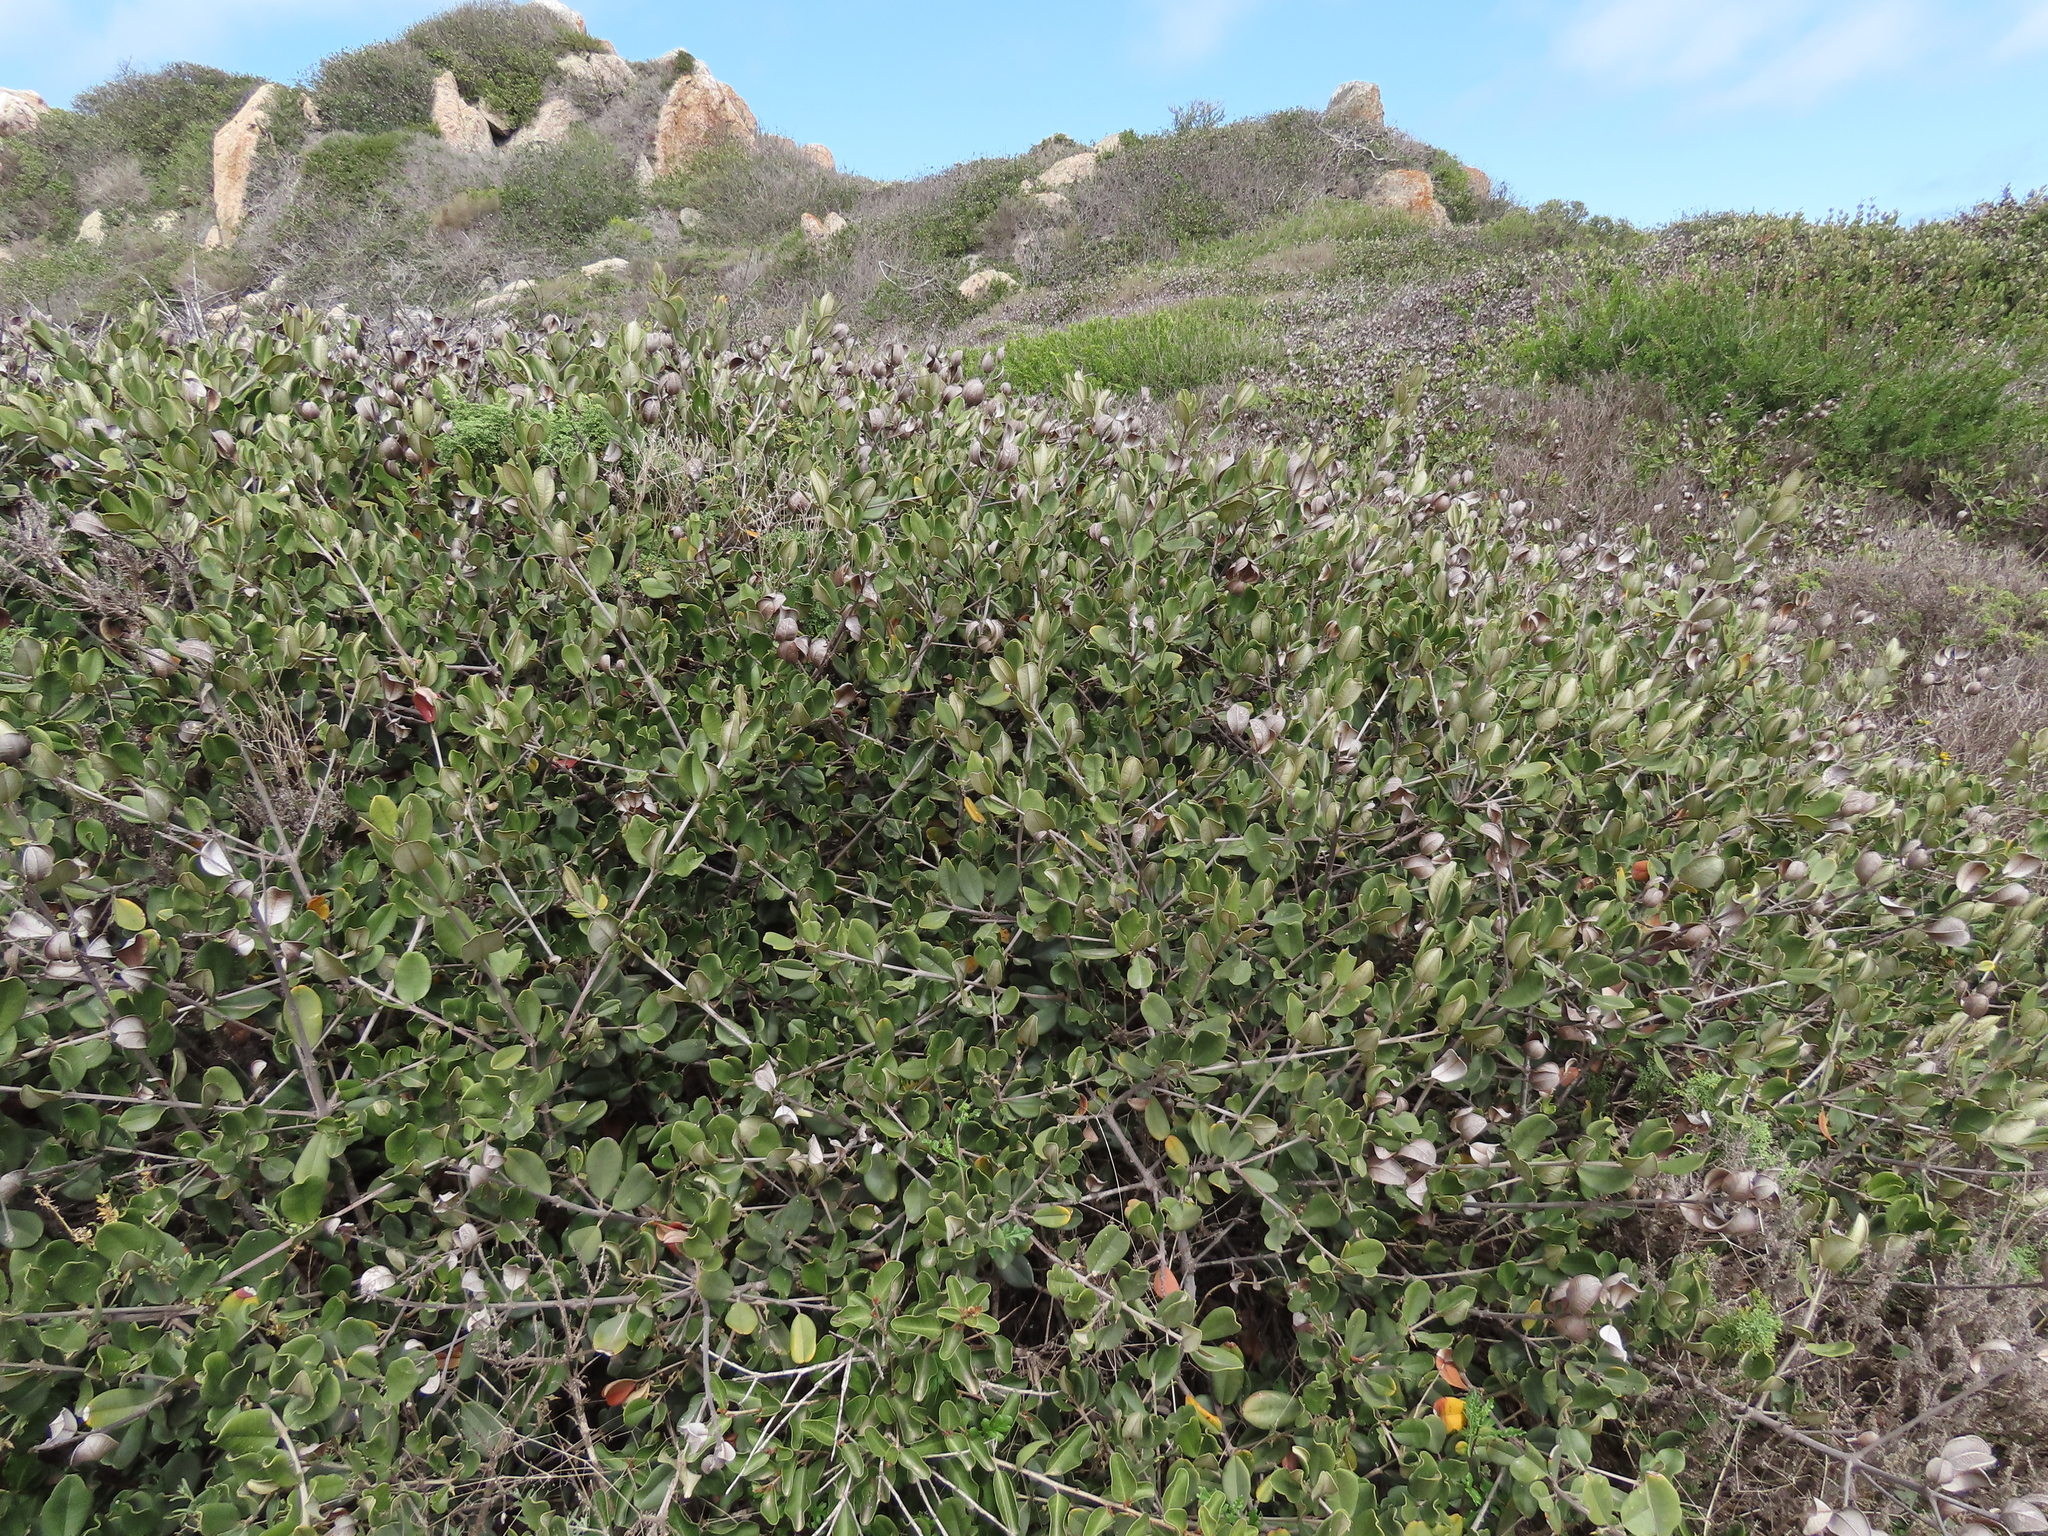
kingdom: Plantae
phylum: Tracheophyta
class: Magnoliopsida
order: Ericales
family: Sapotaceae
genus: Pouteria
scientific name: Pouteria valparadisaea
